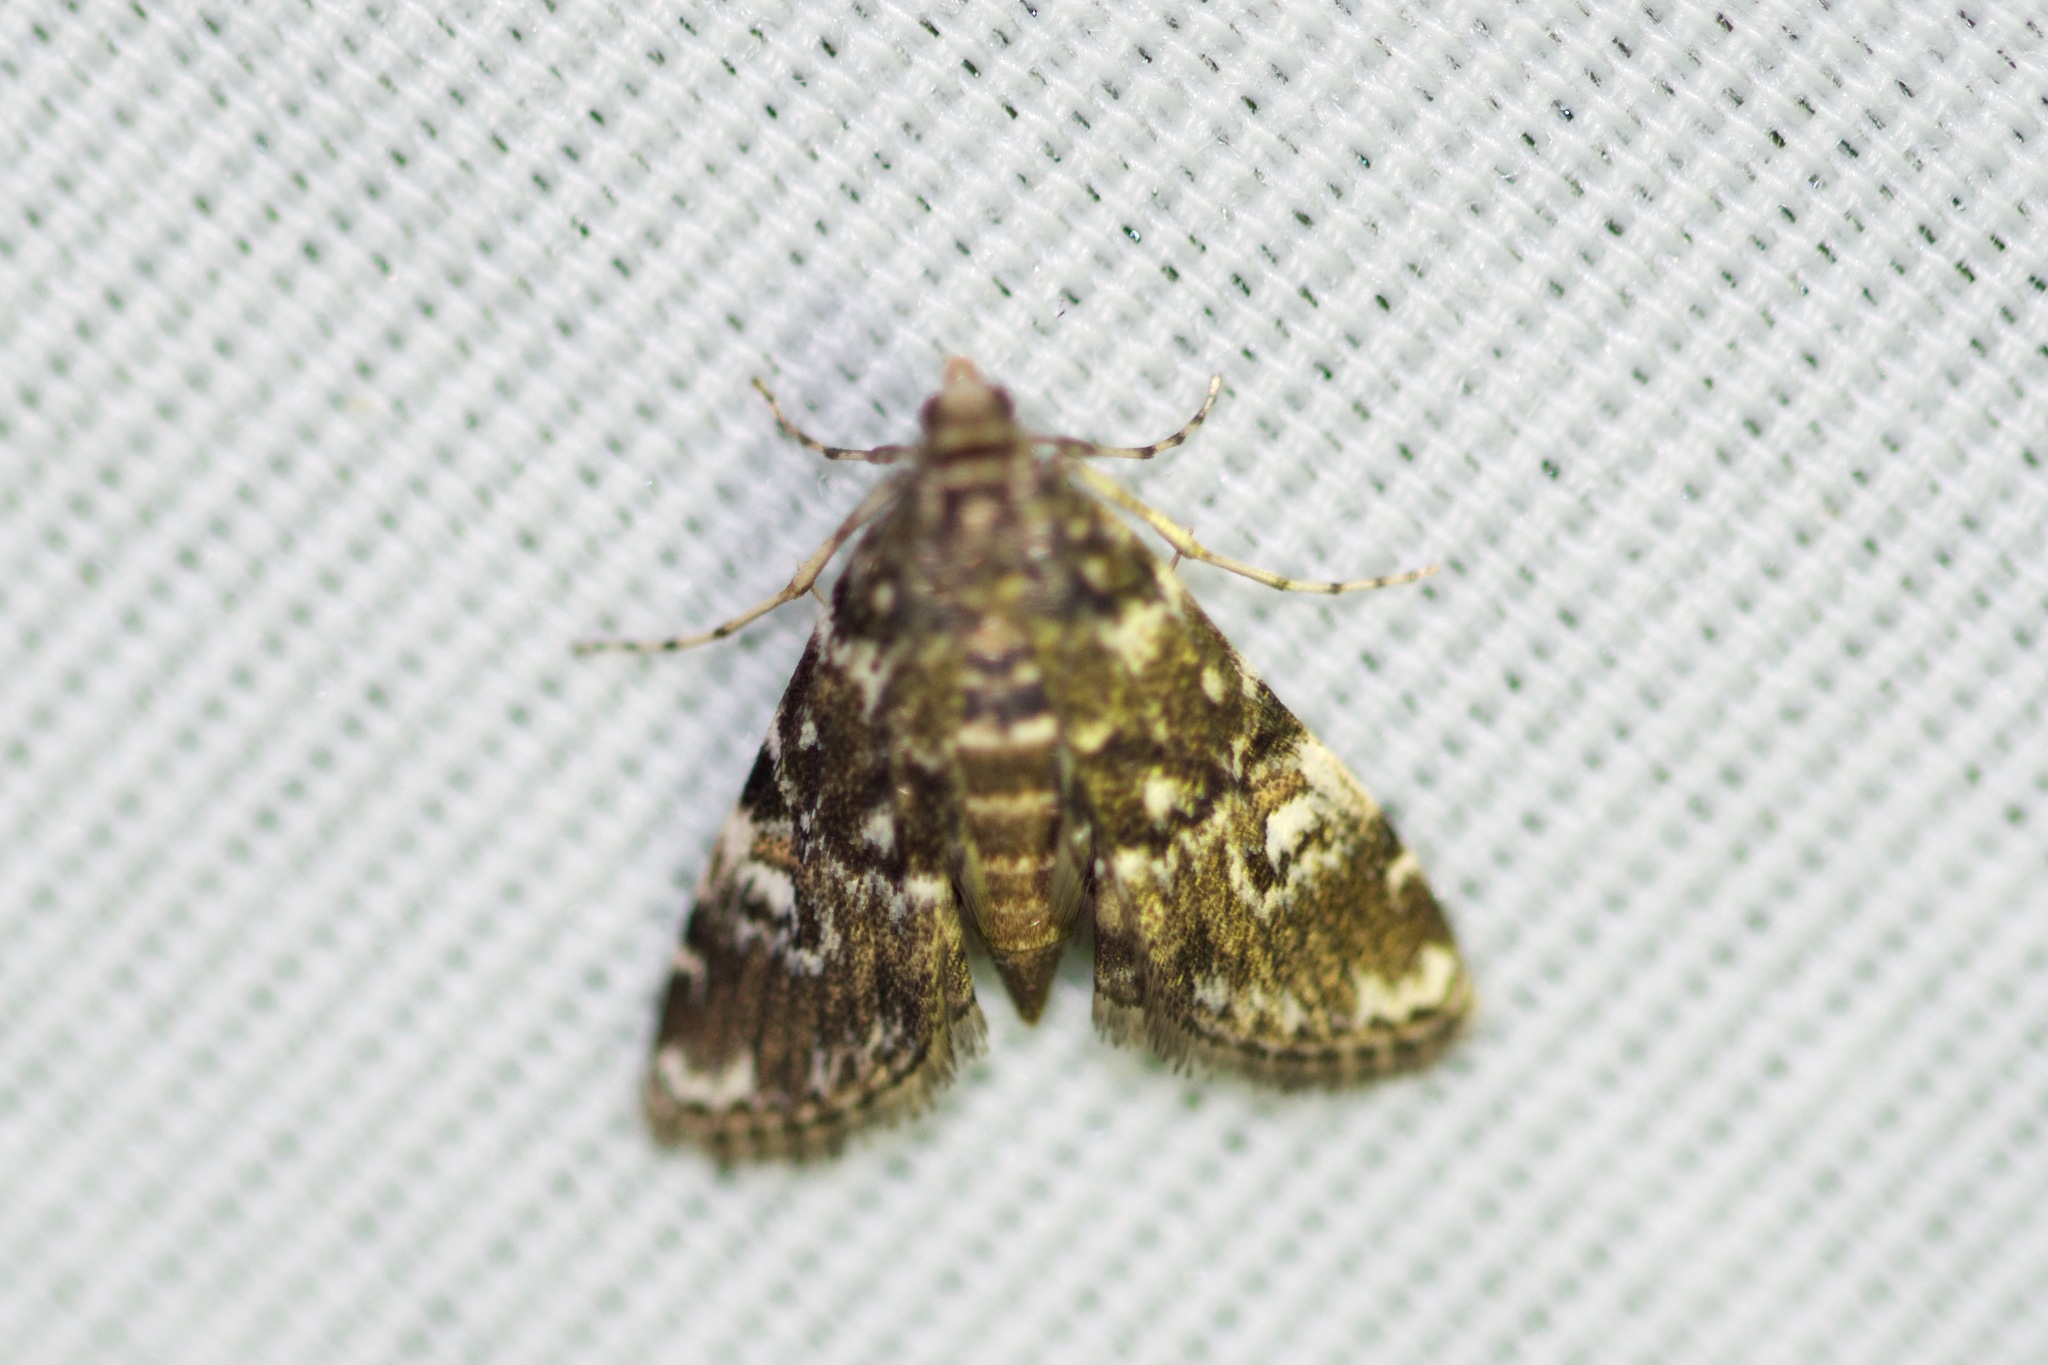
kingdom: Animalia
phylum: Arthropoda
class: Insecta
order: Lepidoptera
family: Crambidae
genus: Elophila
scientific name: Elophila obliteralis
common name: Waterlily leafcutter moth
